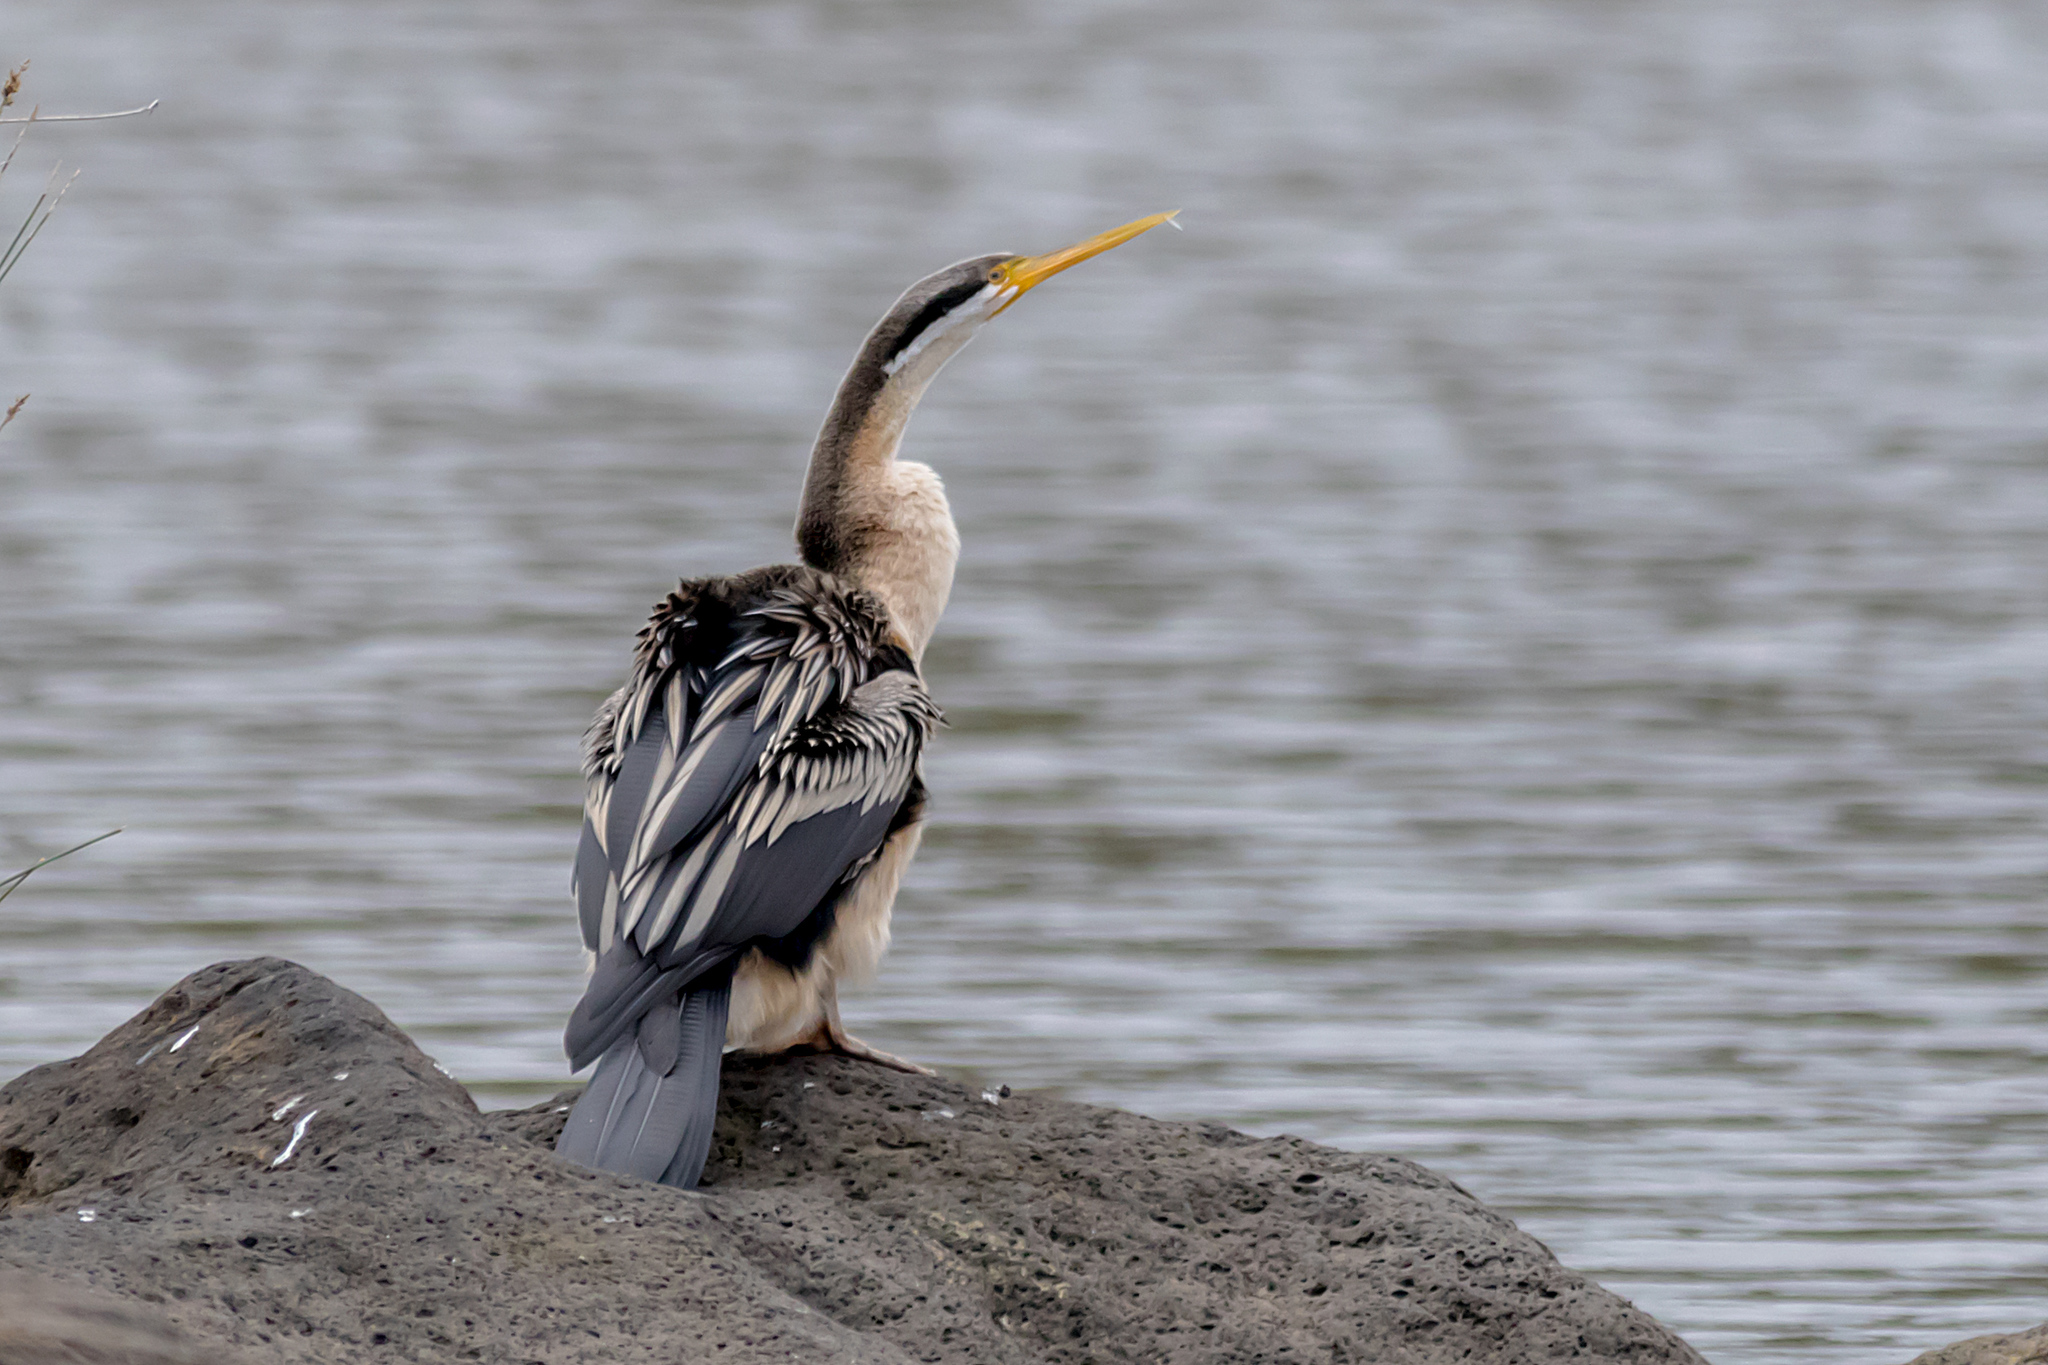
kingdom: Animalia
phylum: Chordata
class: Aves
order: Suliformes
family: Anhingidae
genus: Anhinga
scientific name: Anhinga novaehollandiae
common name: Australasian darter
